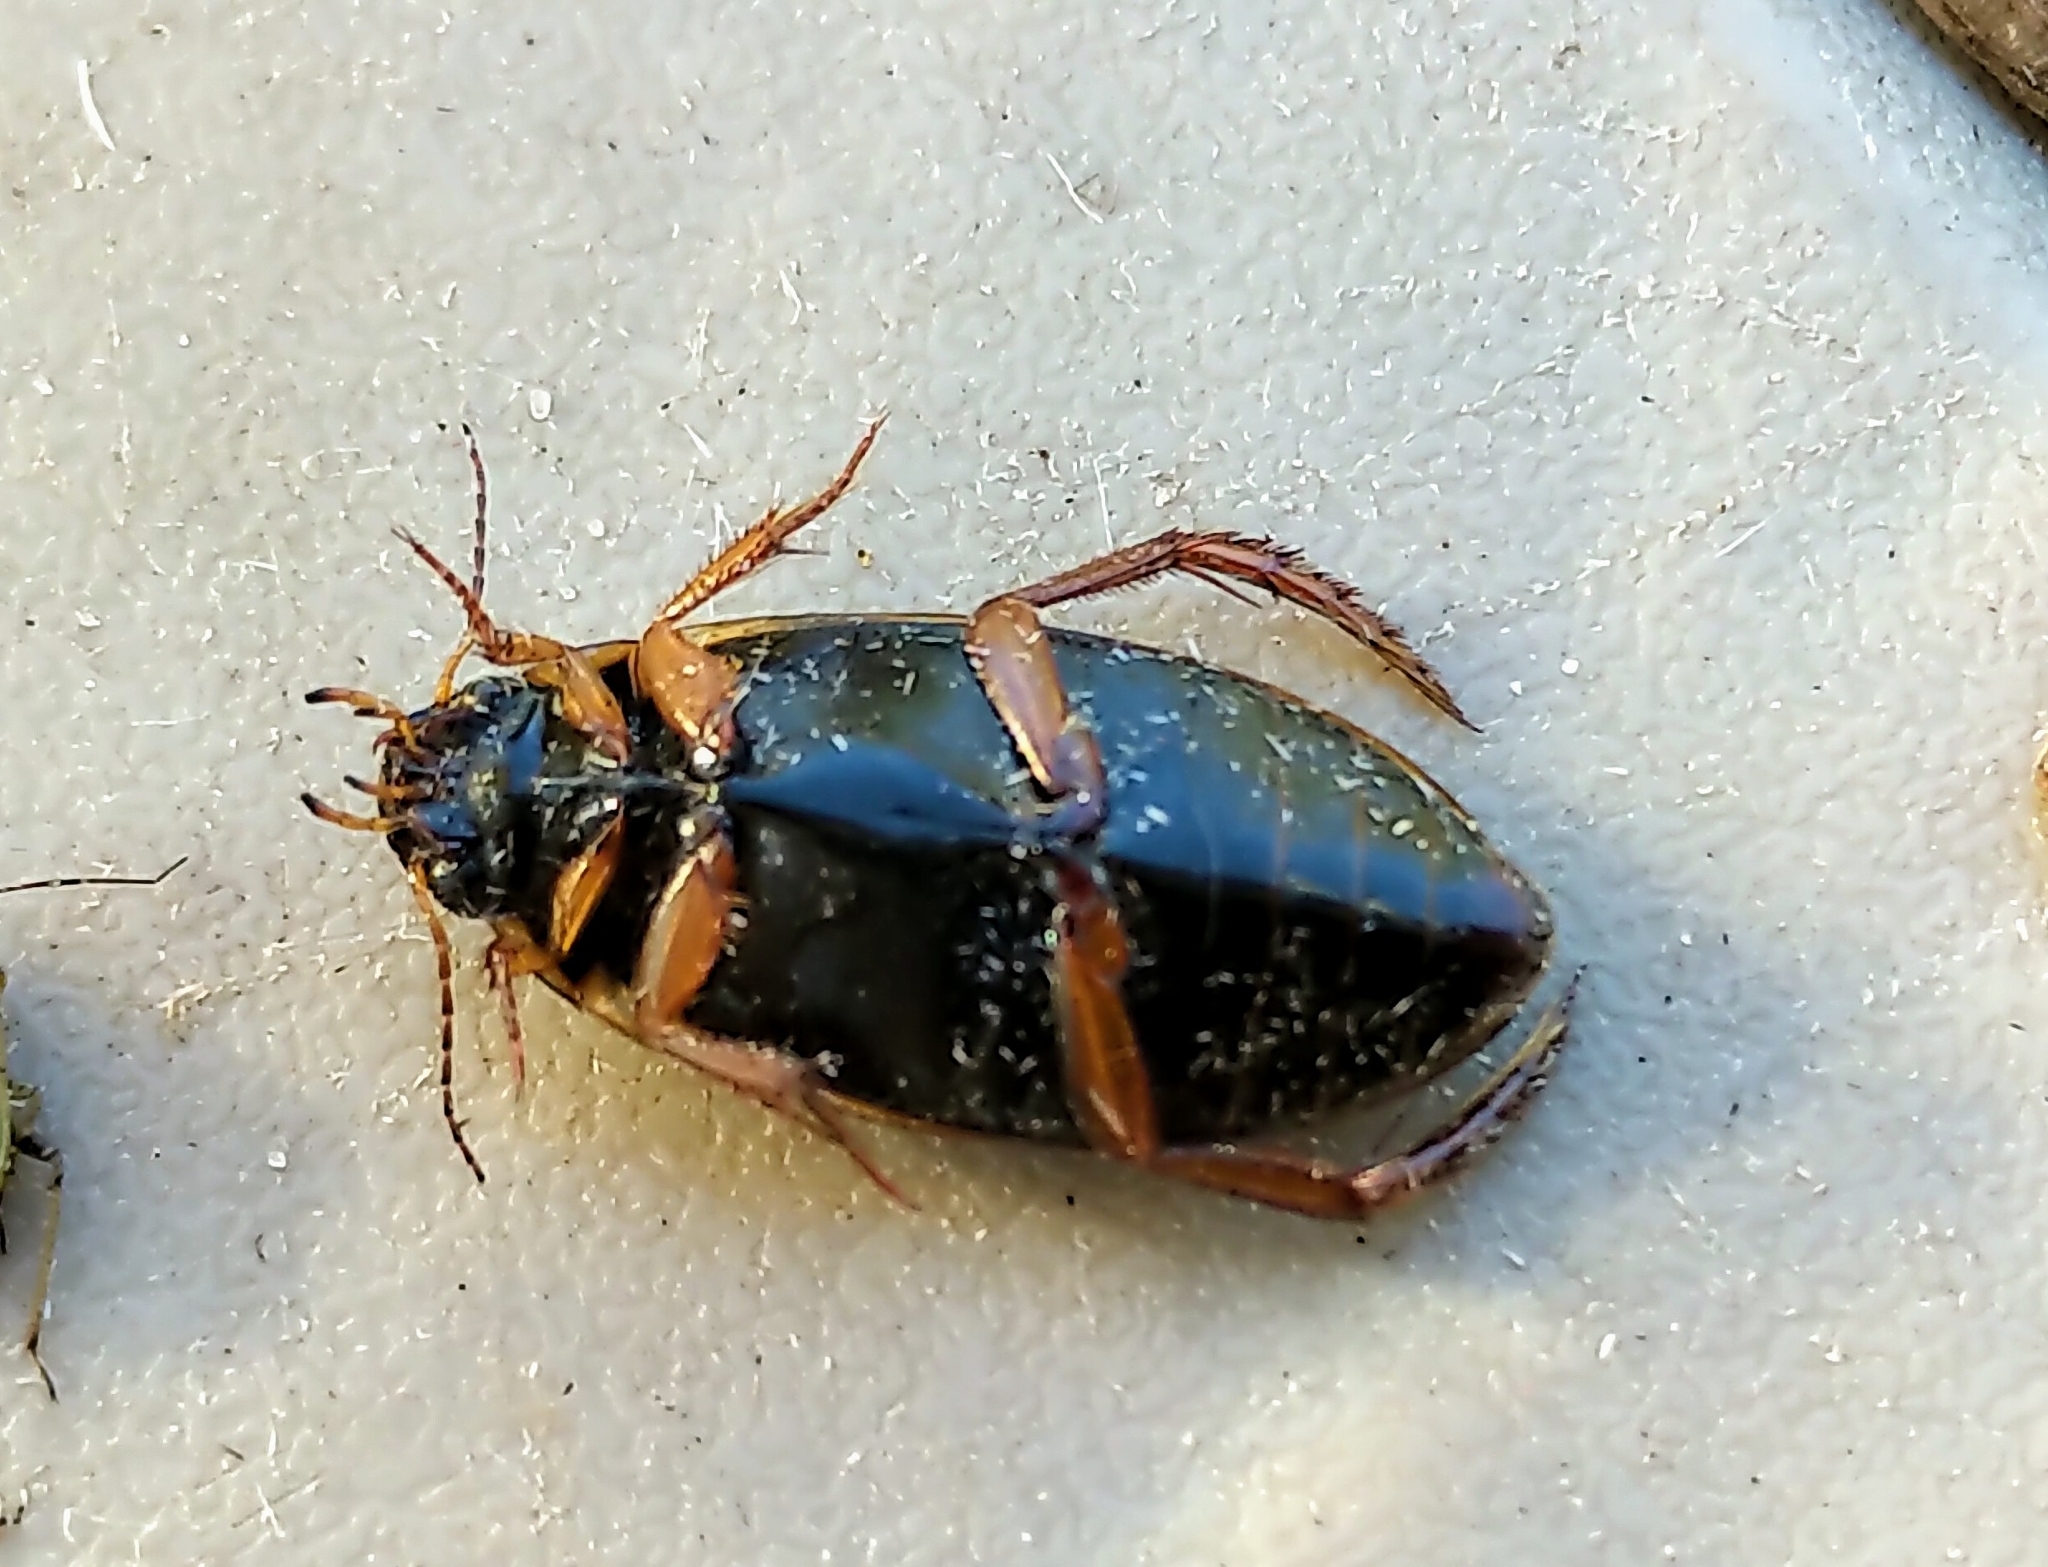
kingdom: Animalia
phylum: Arthropoda
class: Insecta
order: Coleoptera
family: Dytiscidae
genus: Colymbetes
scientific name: Colymbetes
